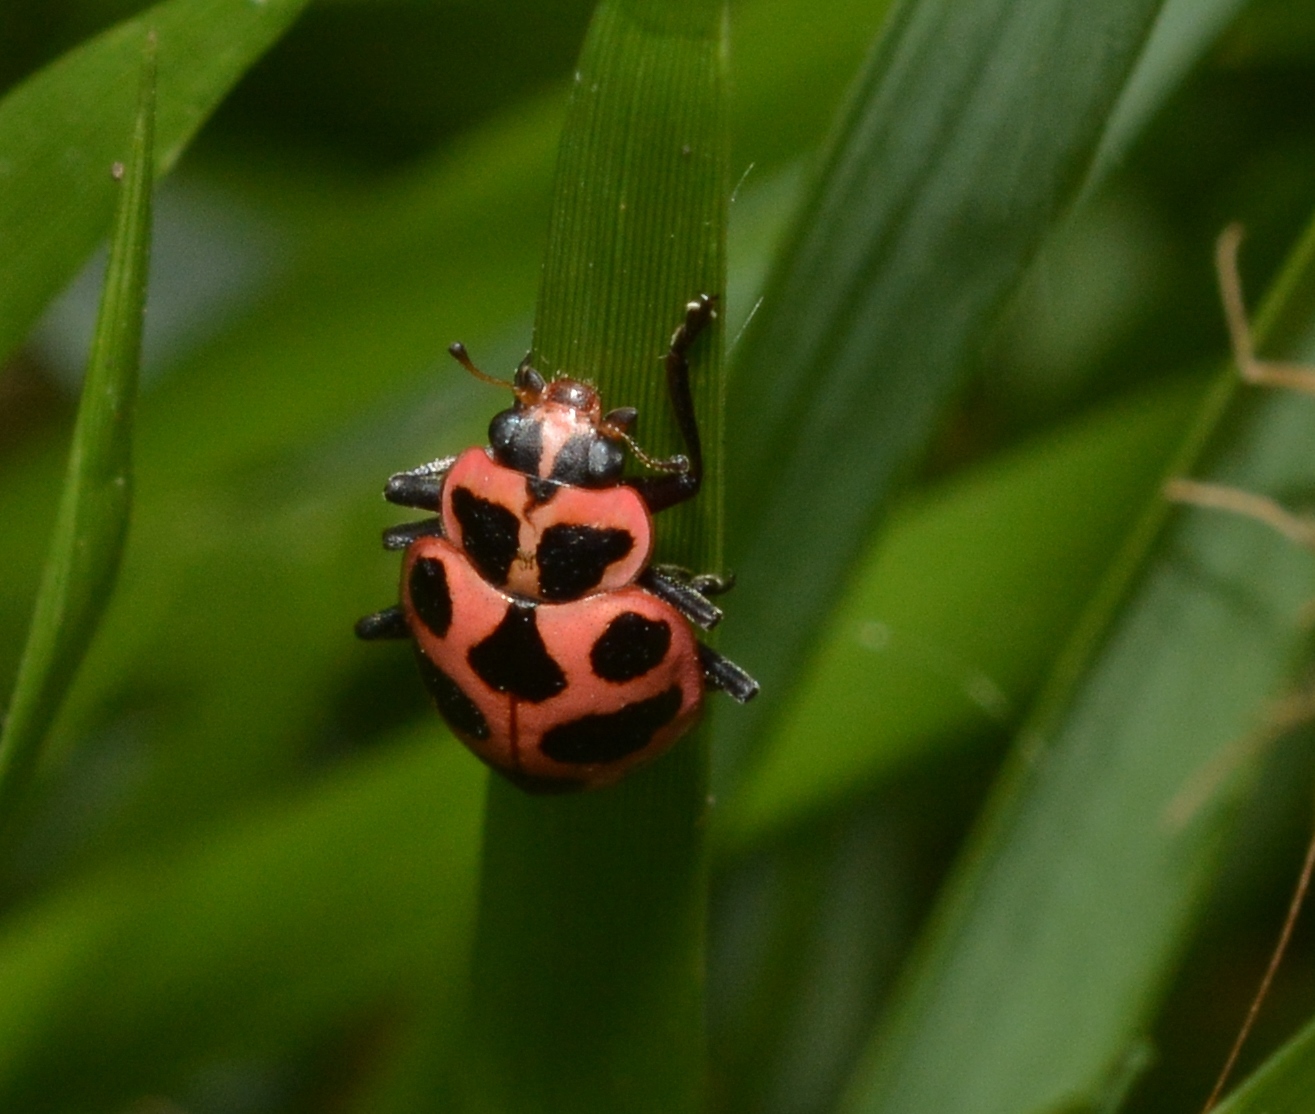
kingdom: Animalia
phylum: Arthropoda
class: Insecta
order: Coleoptera
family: Coccinellidae
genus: Coleomegilla
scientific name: Coleomegilla maculata
